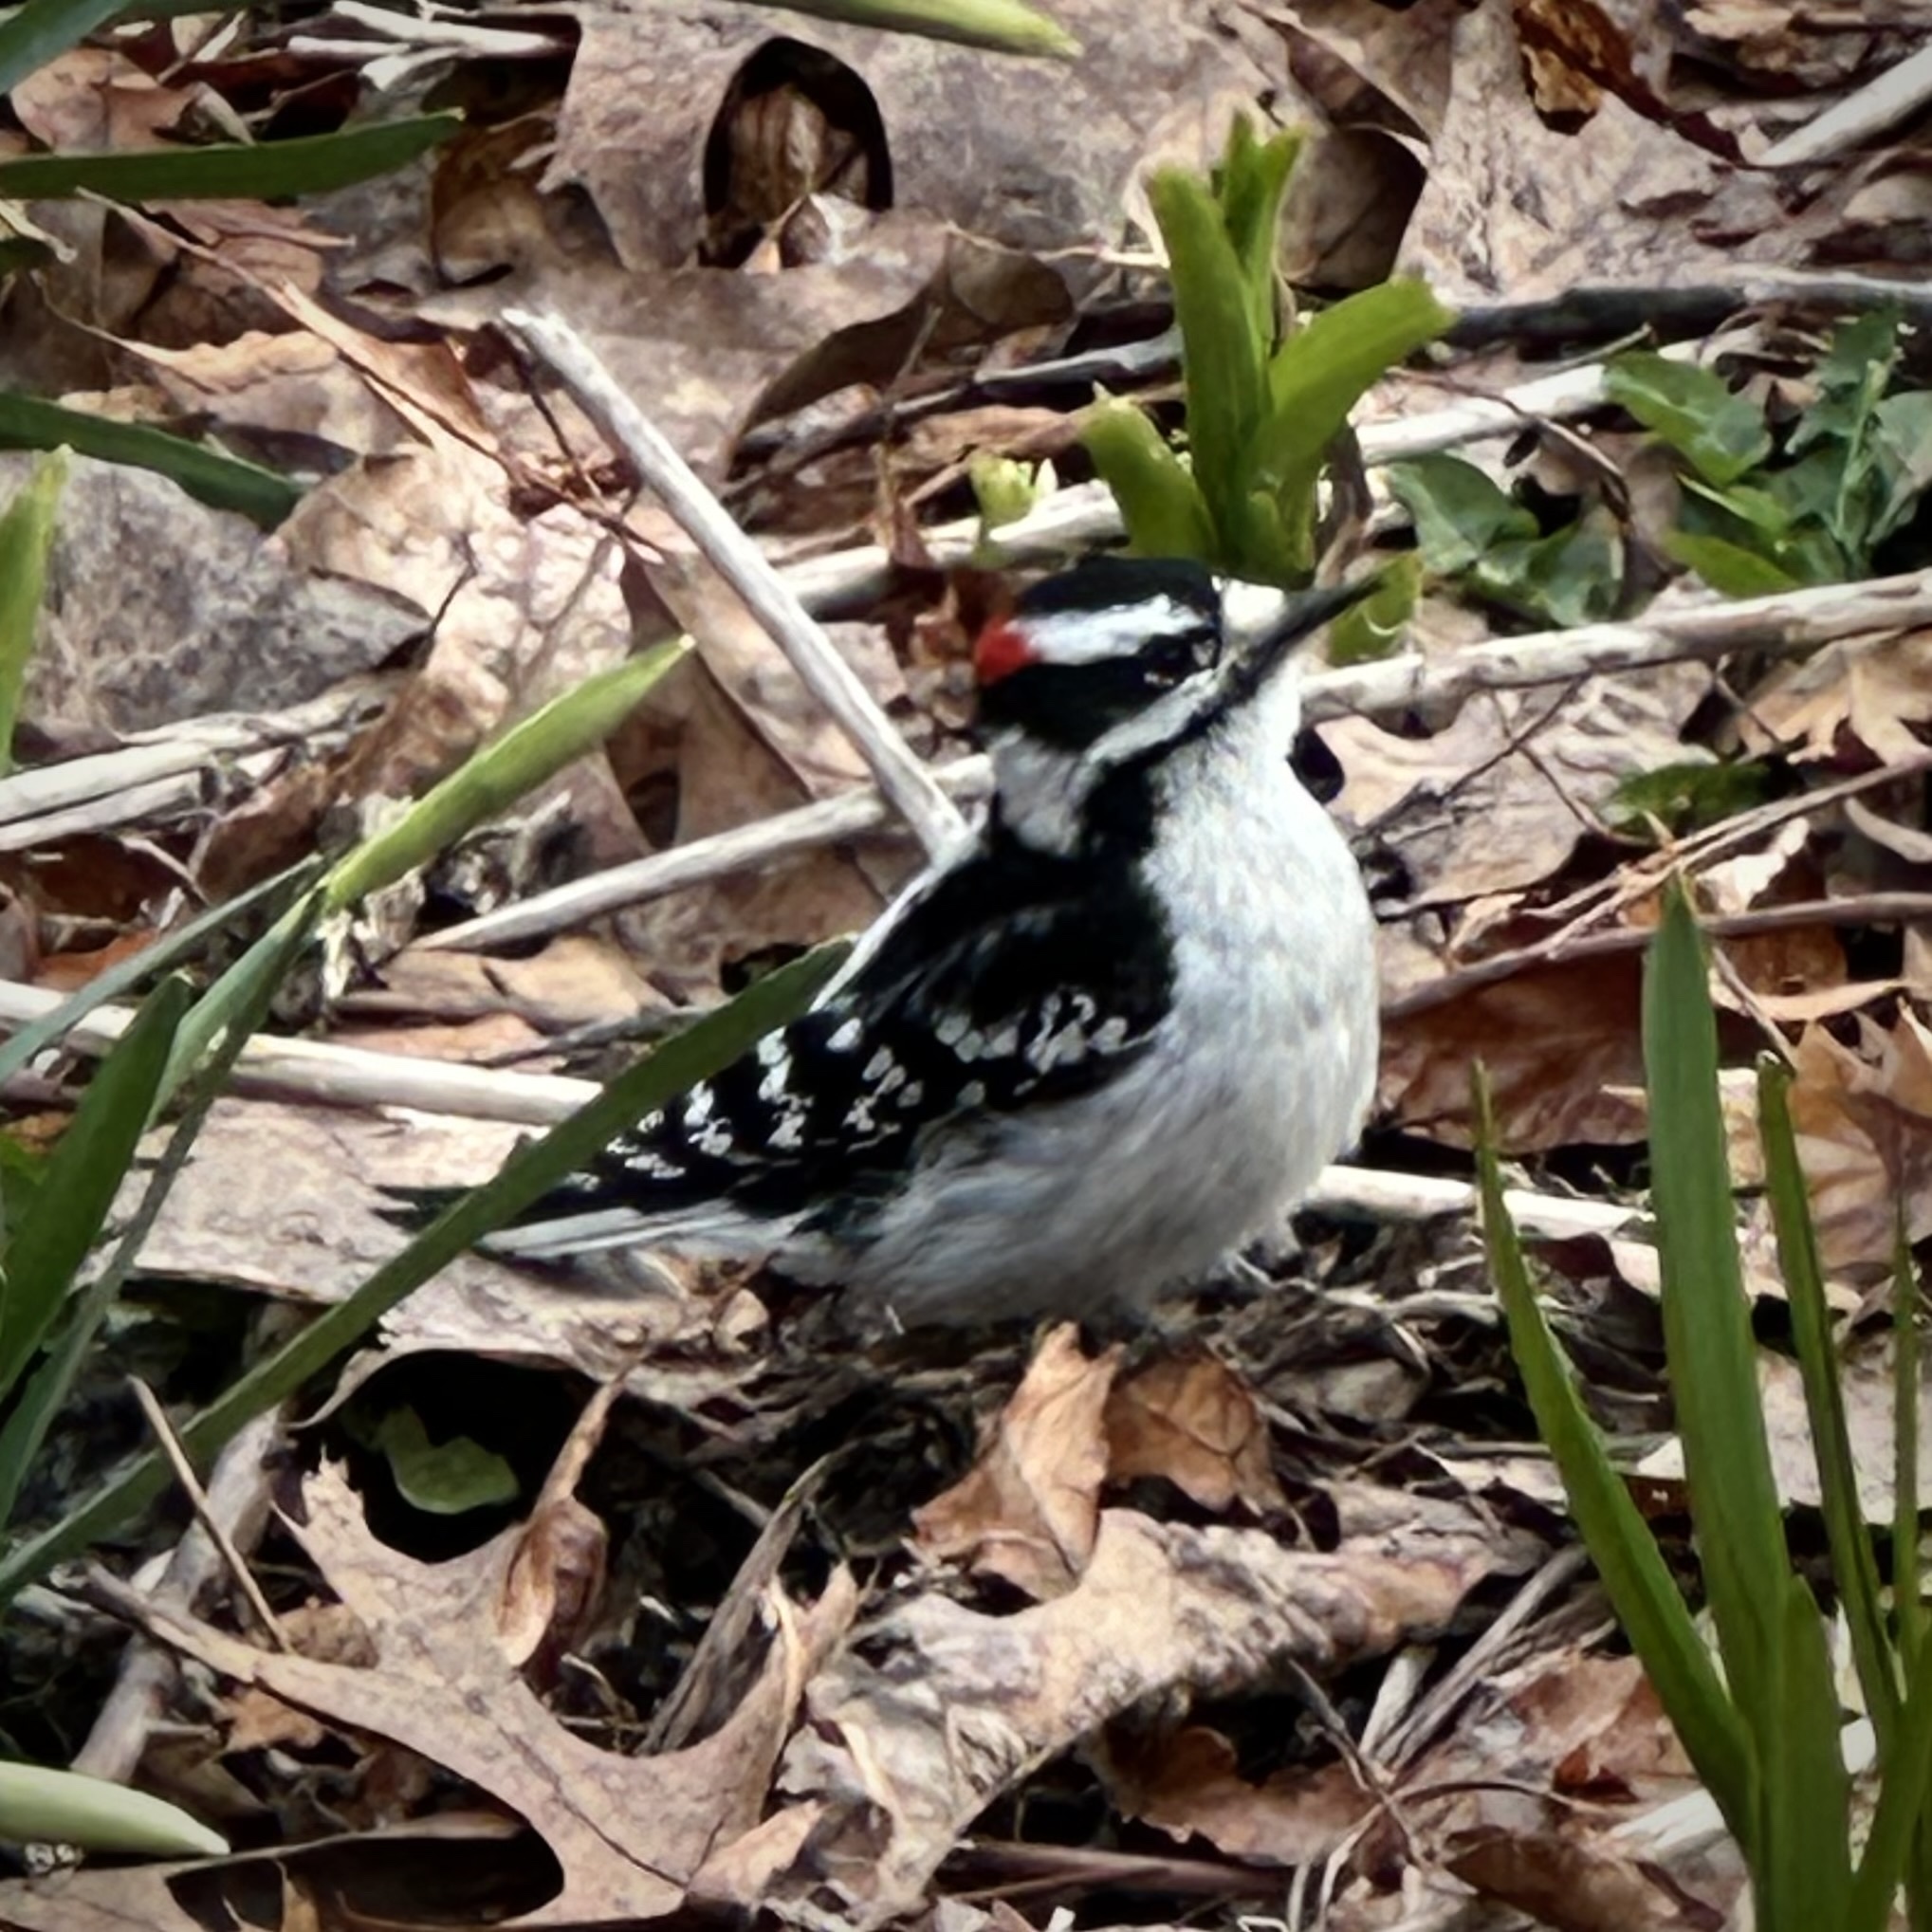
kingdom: Animalia
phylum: Chordata
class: Aves
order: Piciformes
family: Picidae
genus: Dryobates
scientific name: Dryobates pubescens
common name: Downy woodpecker
